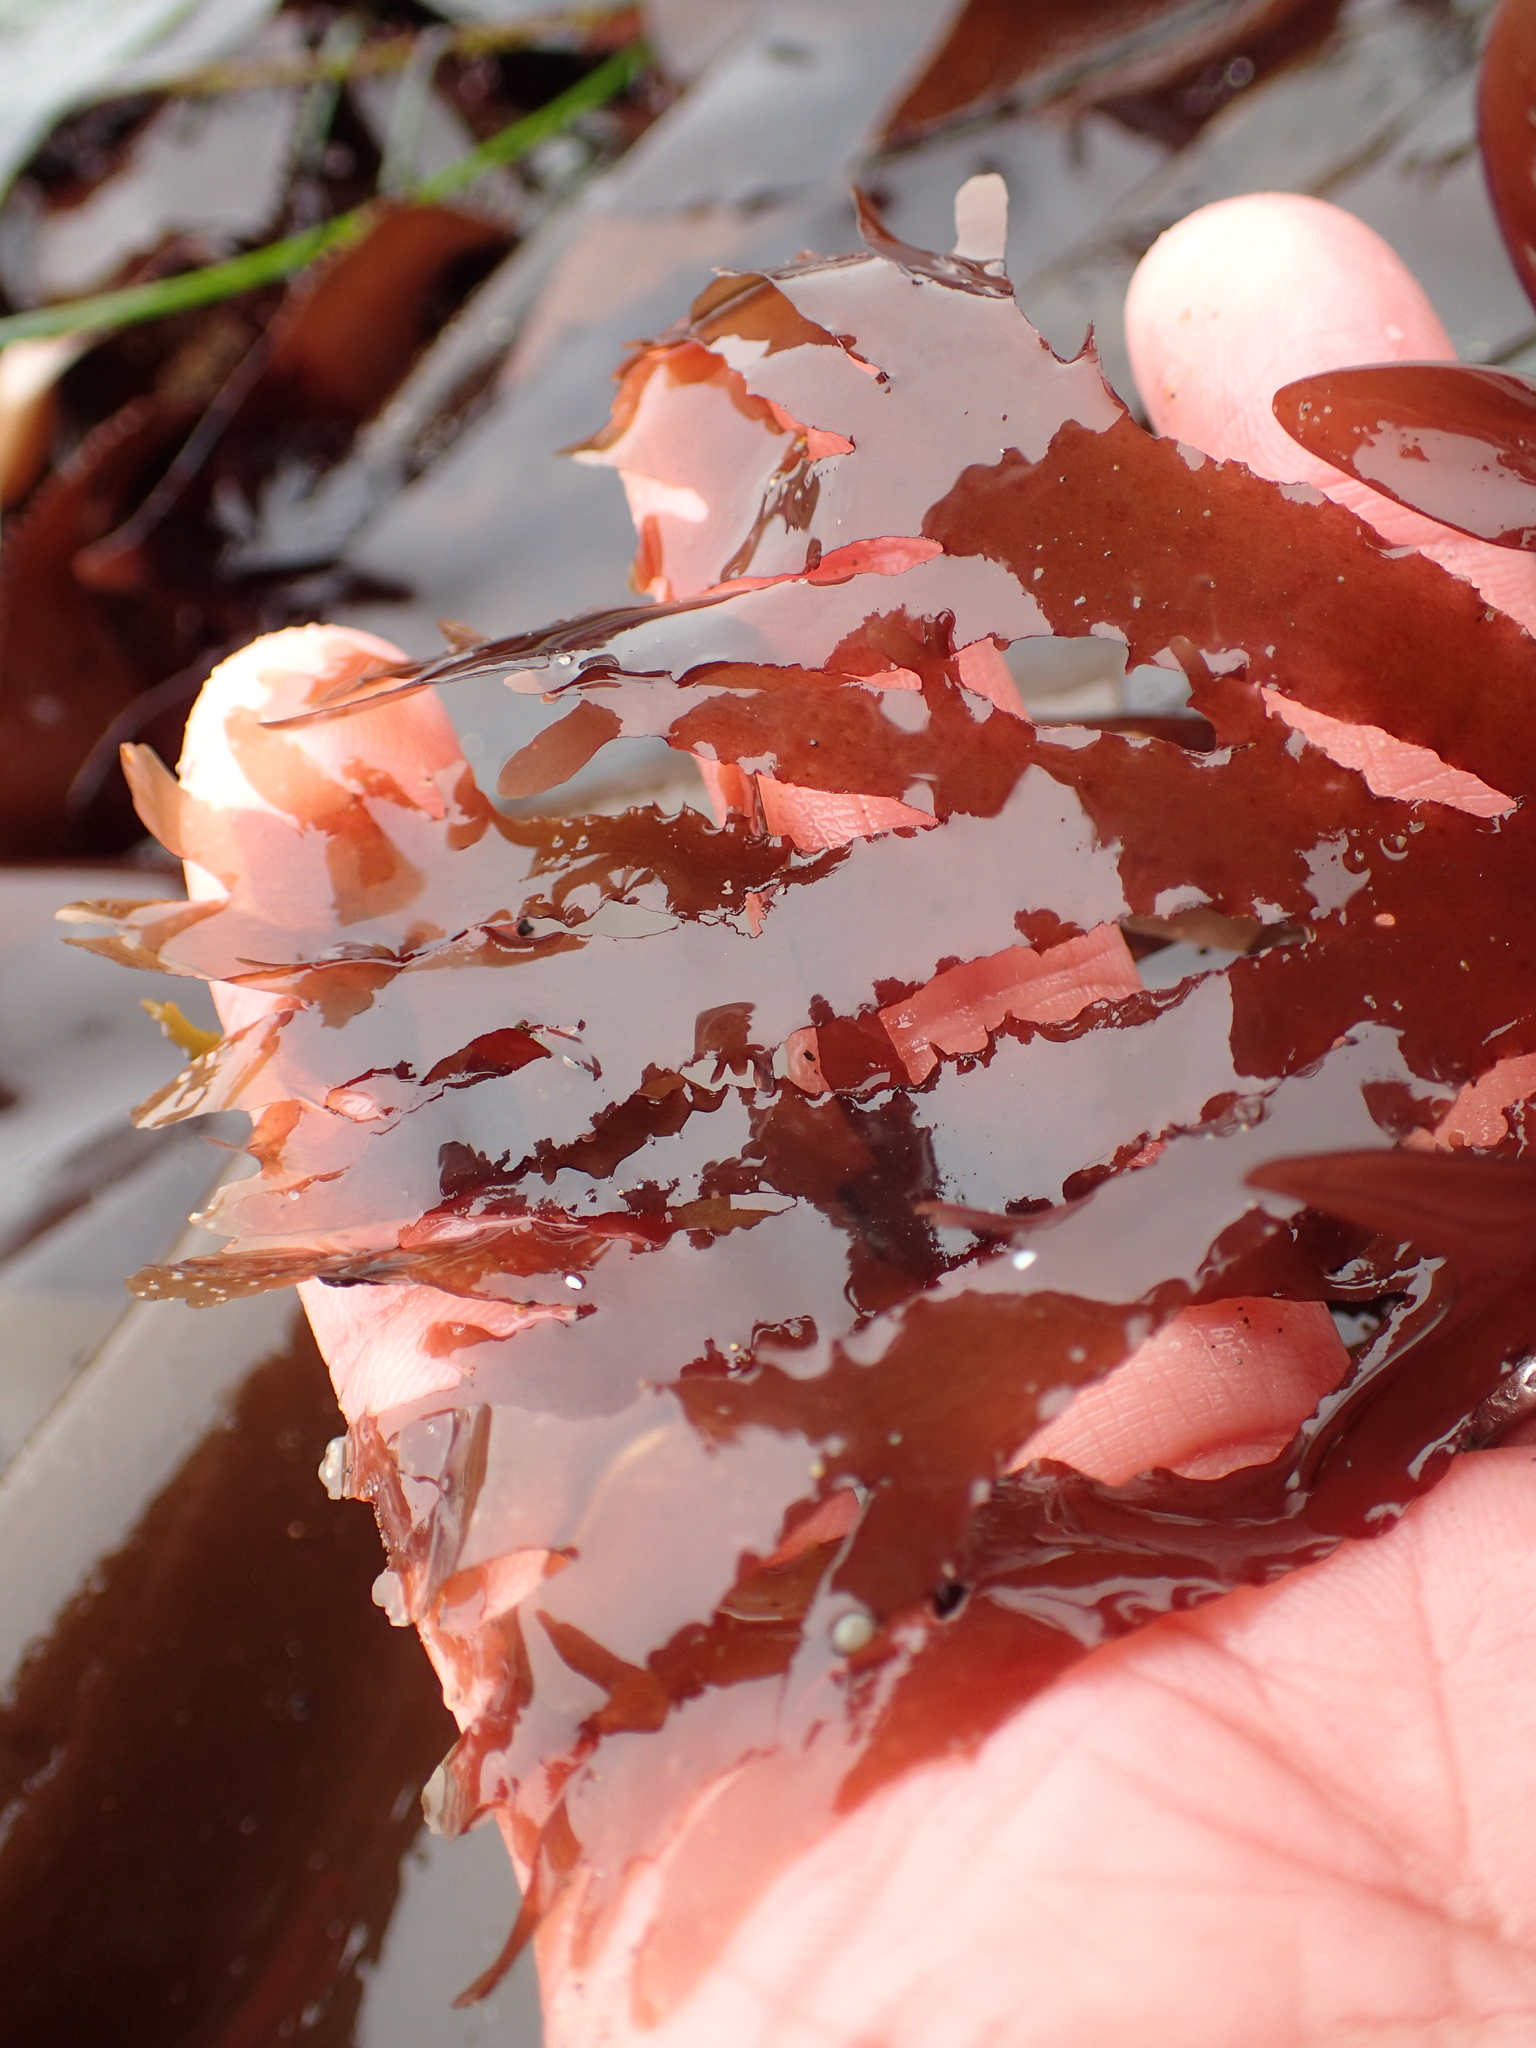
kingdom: Plantae
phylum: Rhodophyta
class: Florideophyceae
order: Ceramiales
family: Delesseriaceae
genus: Cryptopleura
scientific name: Cryptopleura violacea
